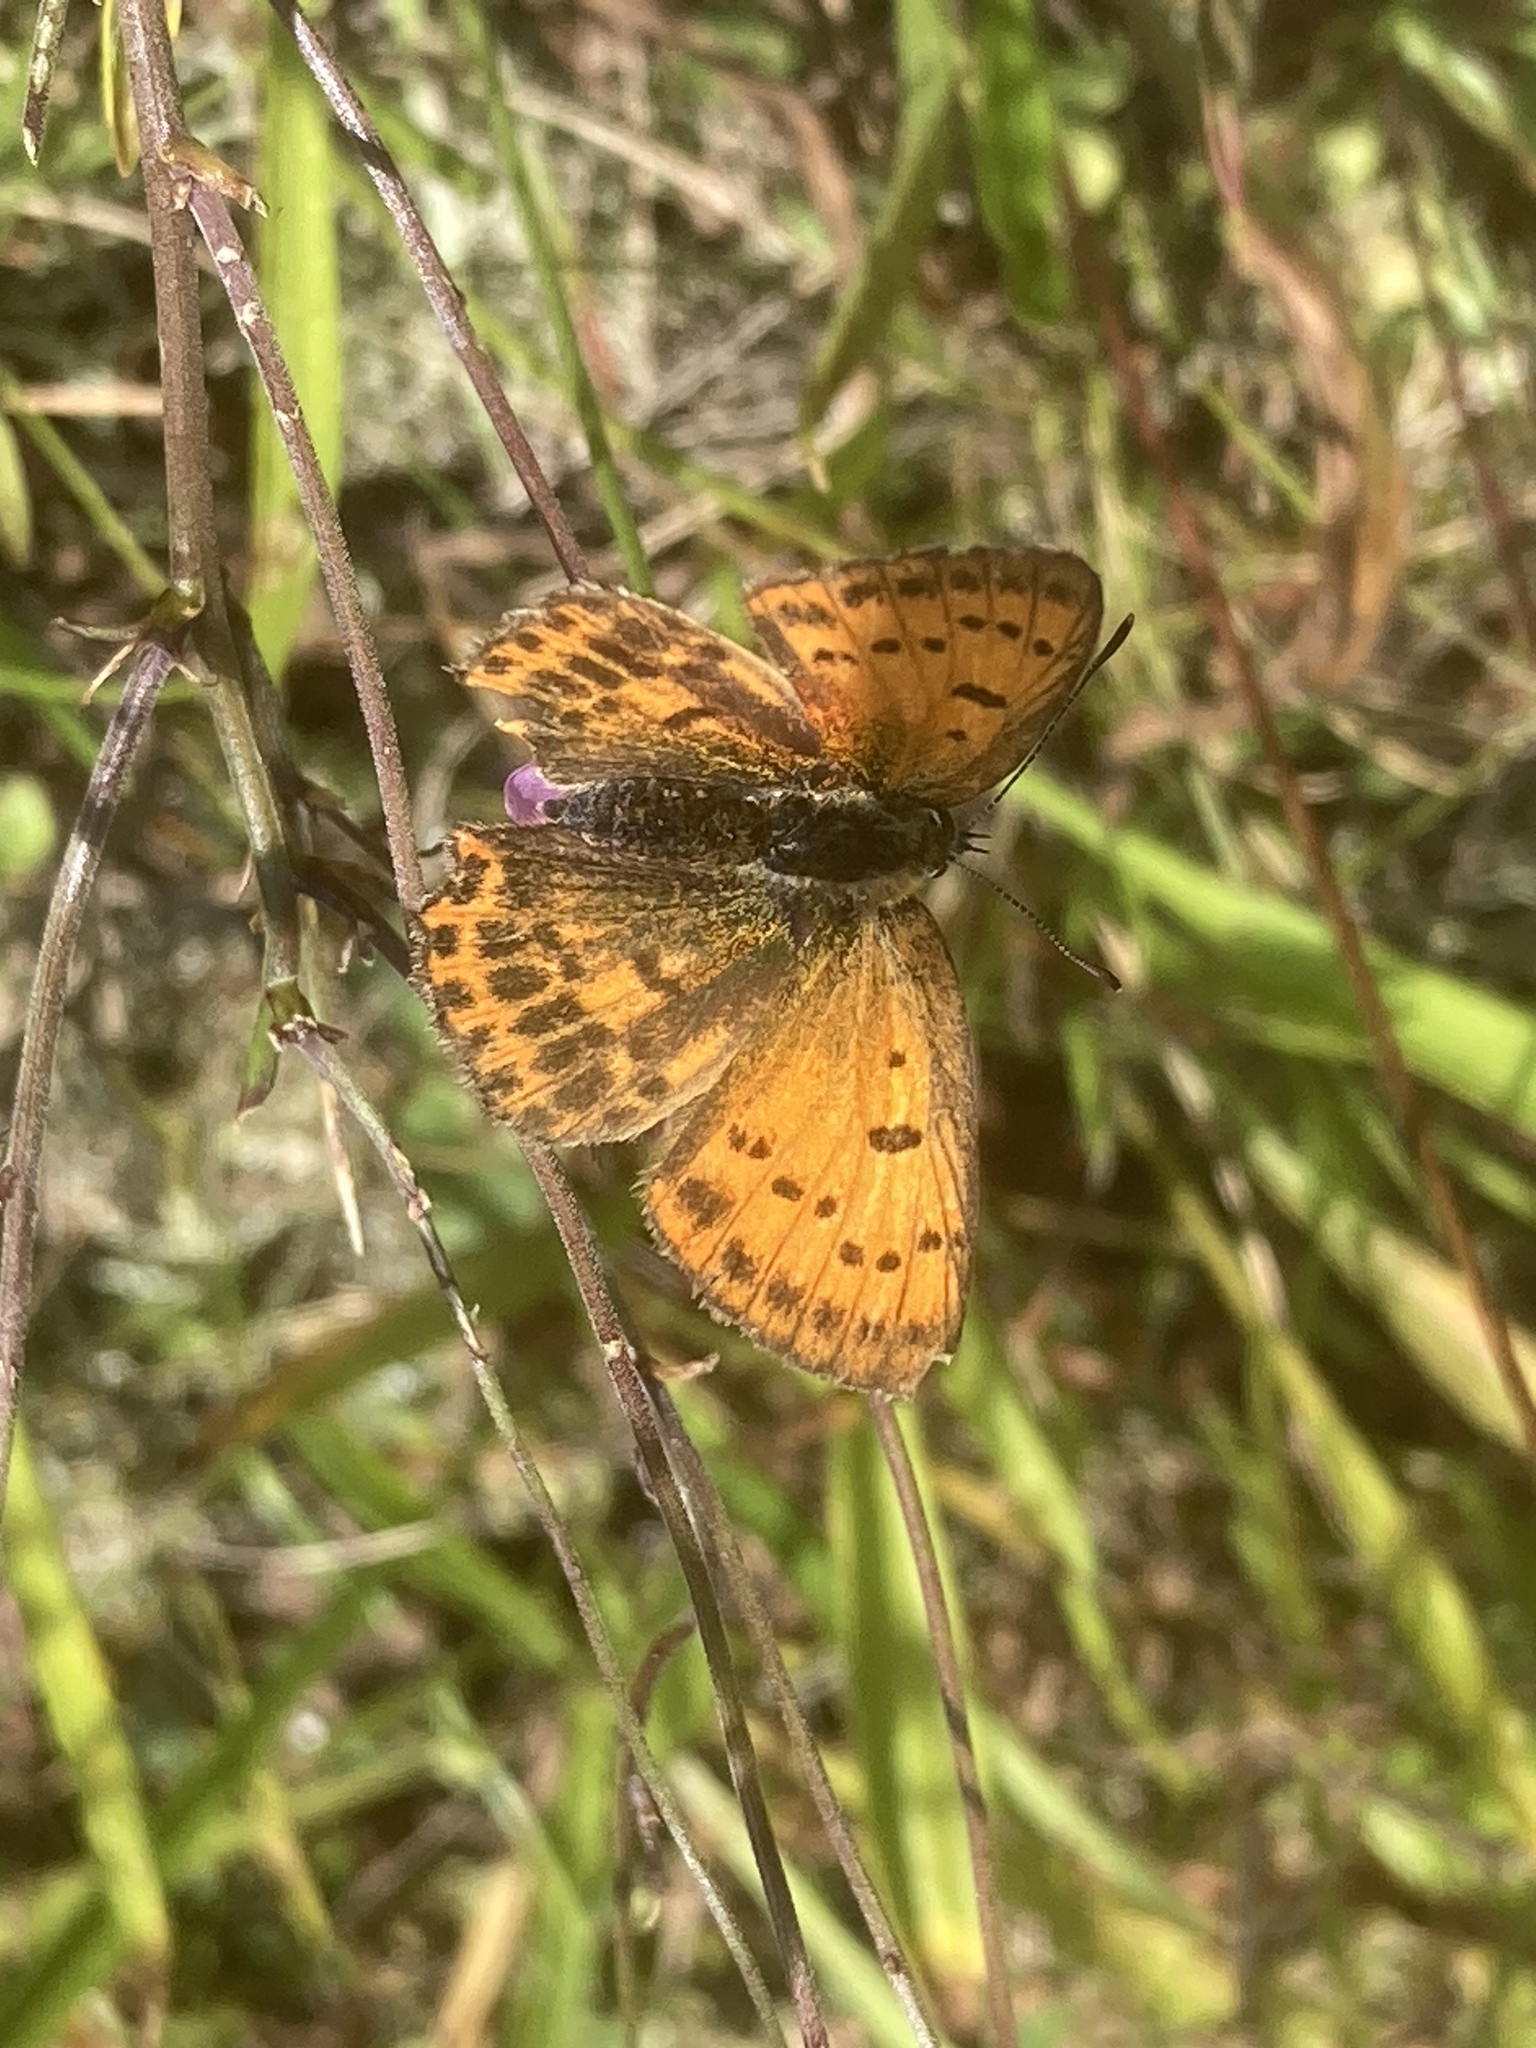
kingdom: Animalia
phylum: Arthropoda
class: Insecta
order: Lepidoptera
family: Lycaenidae
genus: Lycaena
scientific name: Lycaena virgaureae
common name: Scarce copper
